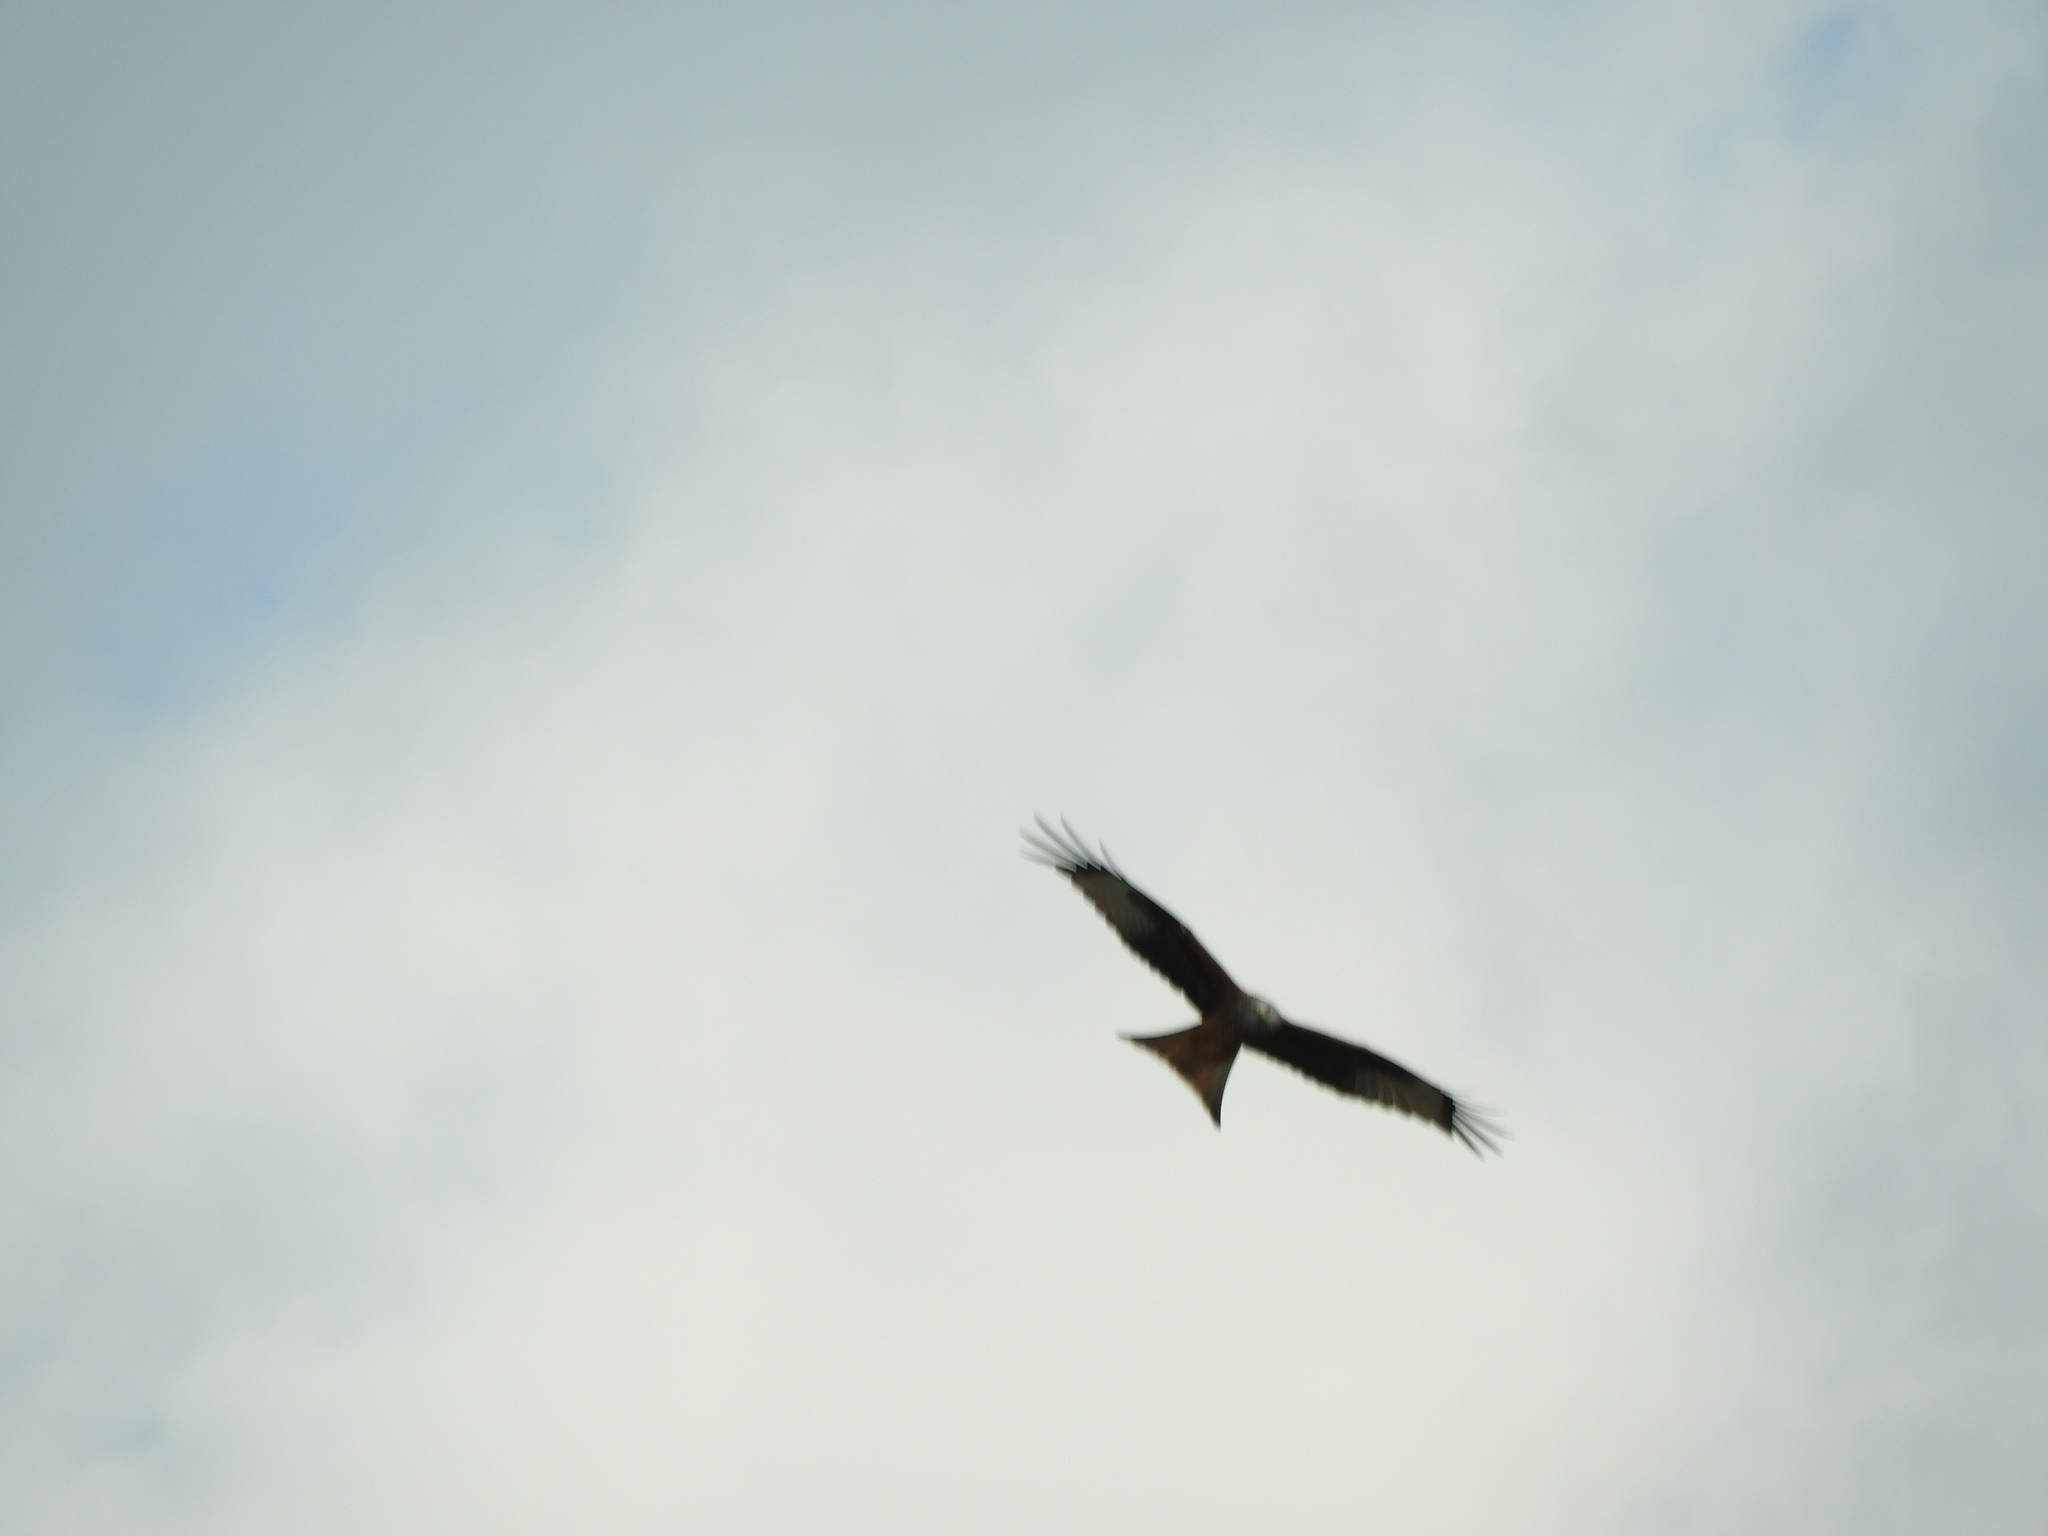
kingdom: Animalia
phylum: Chordata
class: Aves
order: Accipitriformes
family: Accipitridae
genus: Milvus
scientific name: Milvus milvus
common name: Red kite
